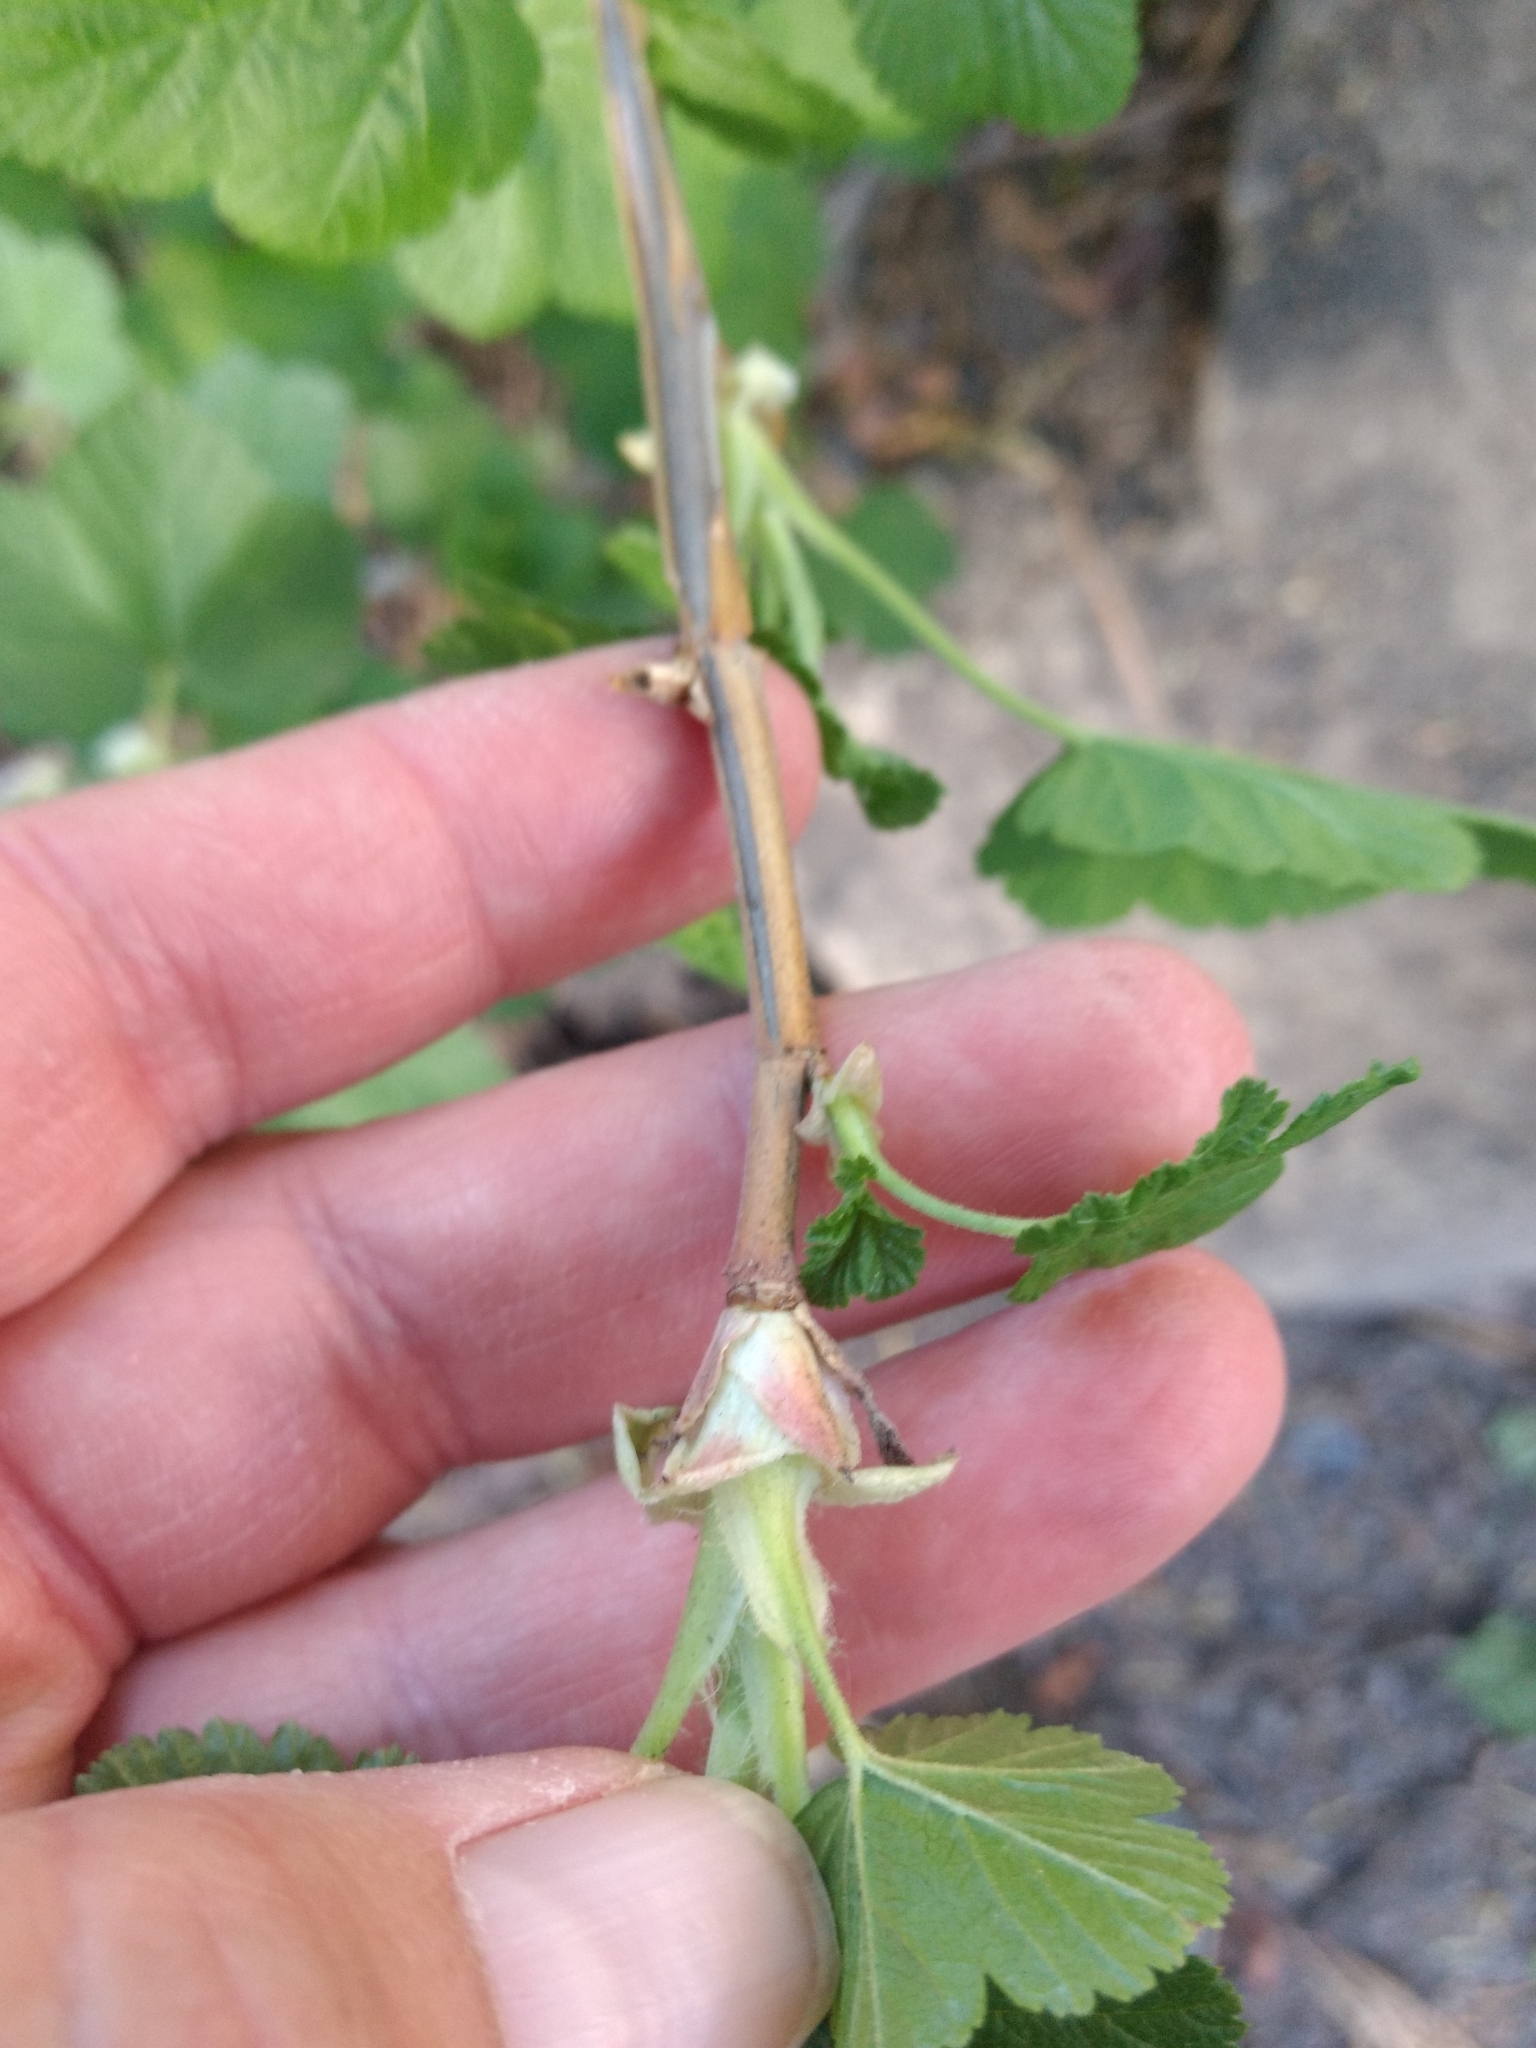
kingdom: Plantae
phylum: Tracheophyta
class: Magnoliopsida
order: Saxifragales
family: Grossulariaceae
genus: Ribes
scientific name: Ribes nevadense
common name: Mountain pink currant
